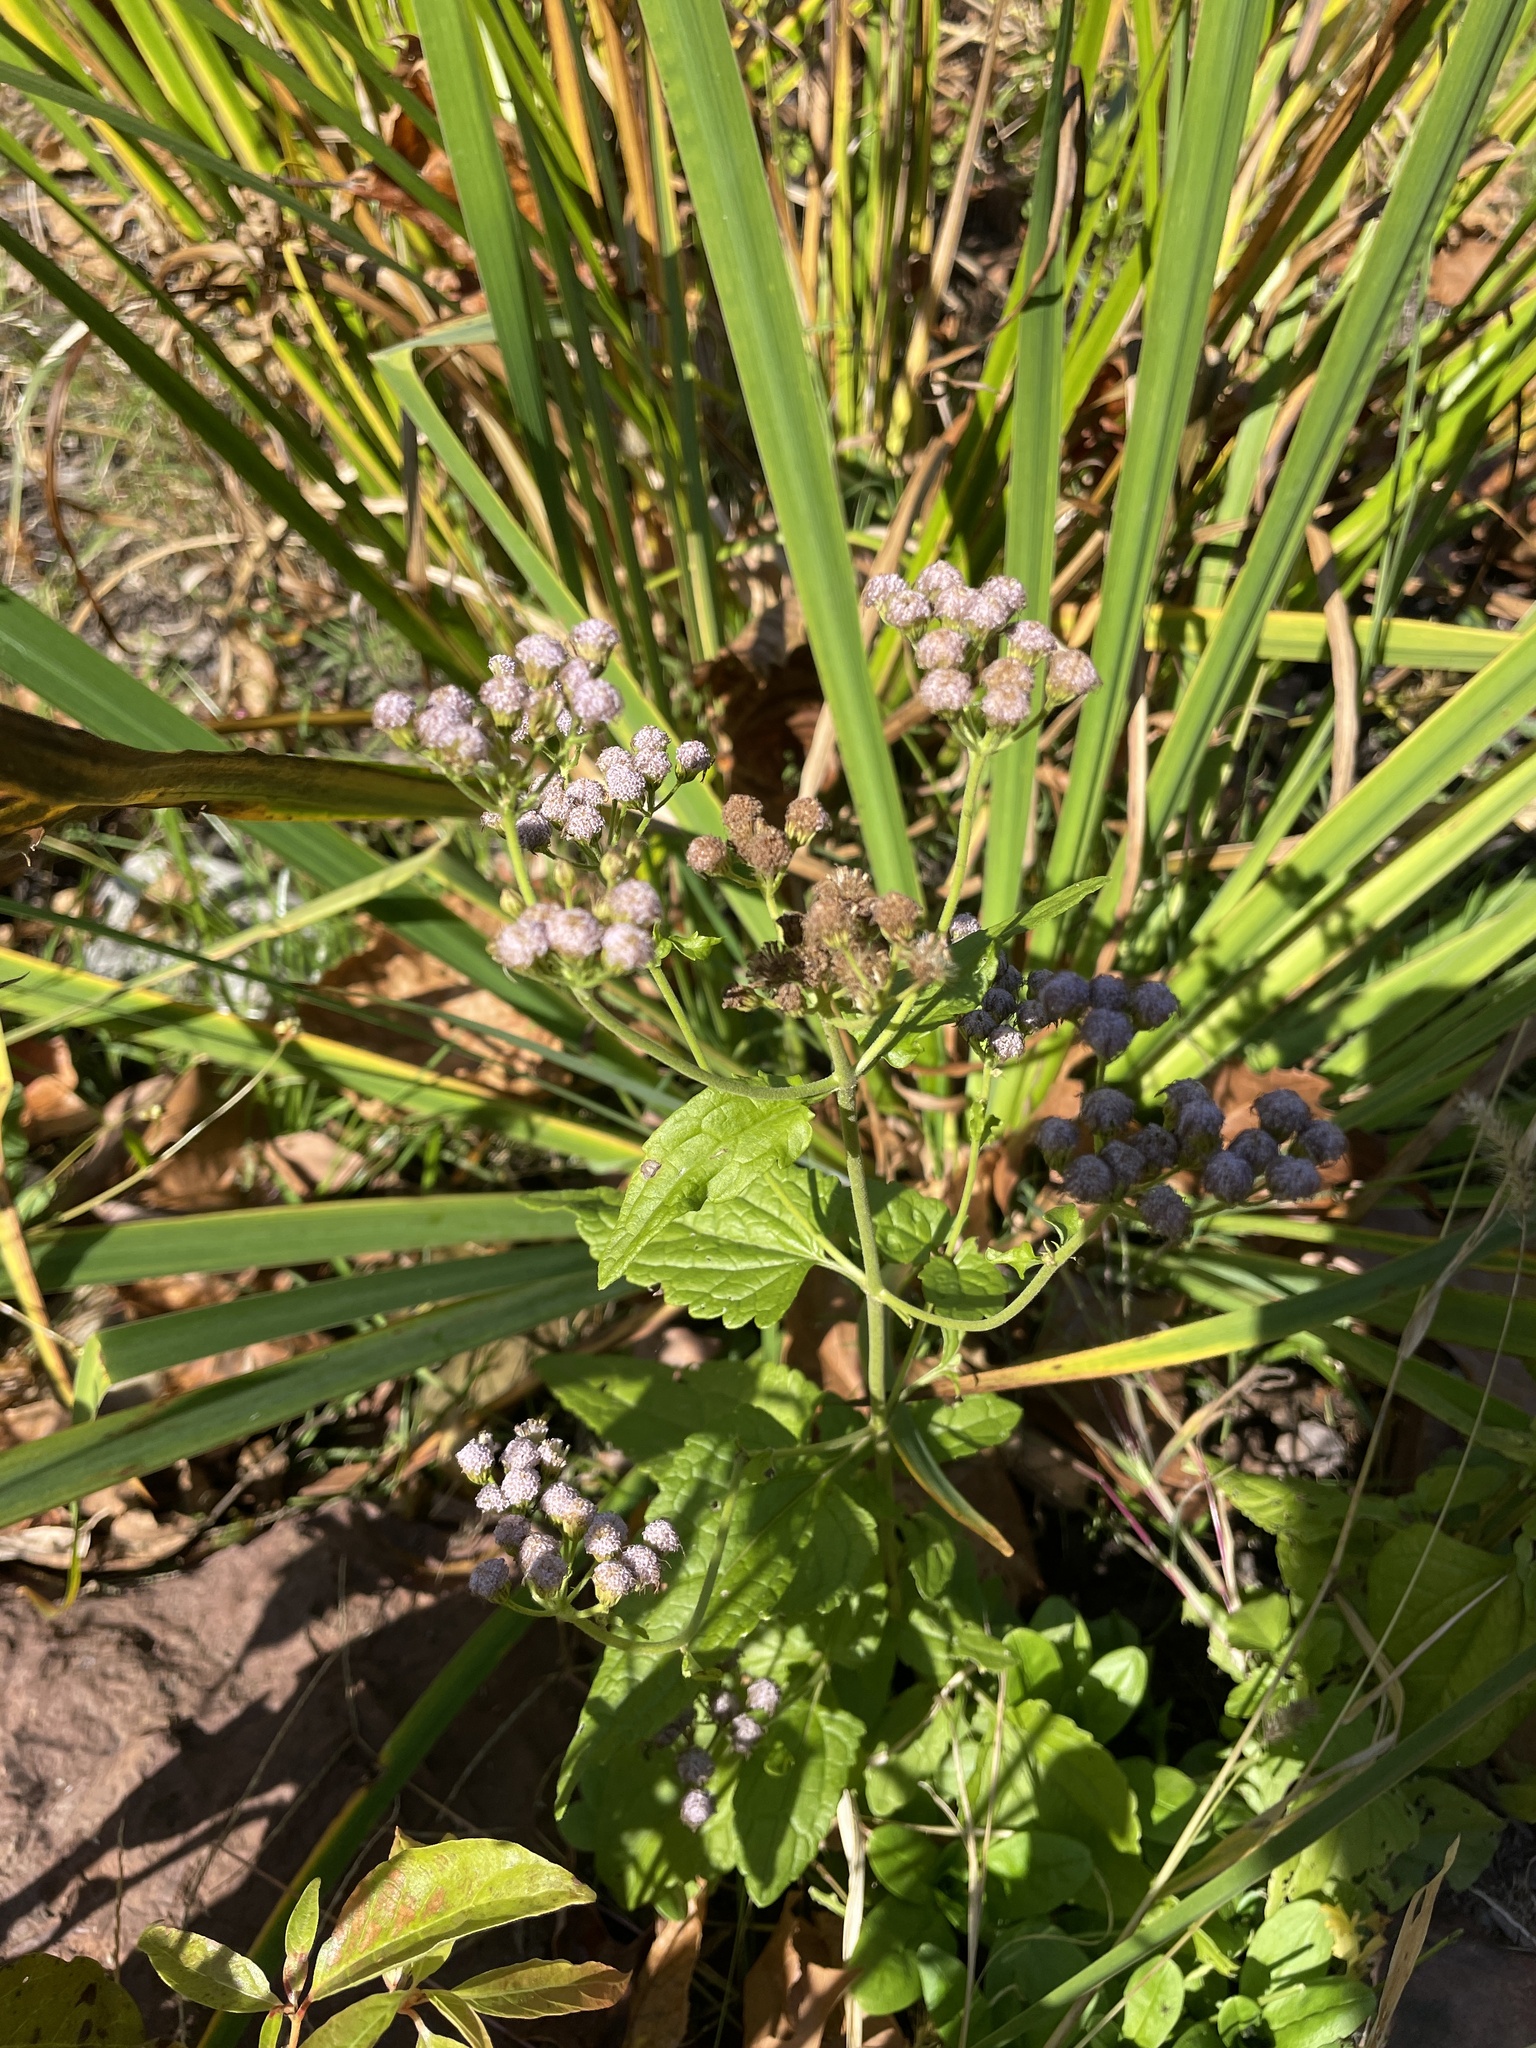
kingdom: Plantae
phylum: Tracheophyta
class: Magnoliopsida
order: Asterales
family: Asteraceae
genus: Conoclinium
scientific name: Conoclinium coelestinum
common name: Blue mistflower
